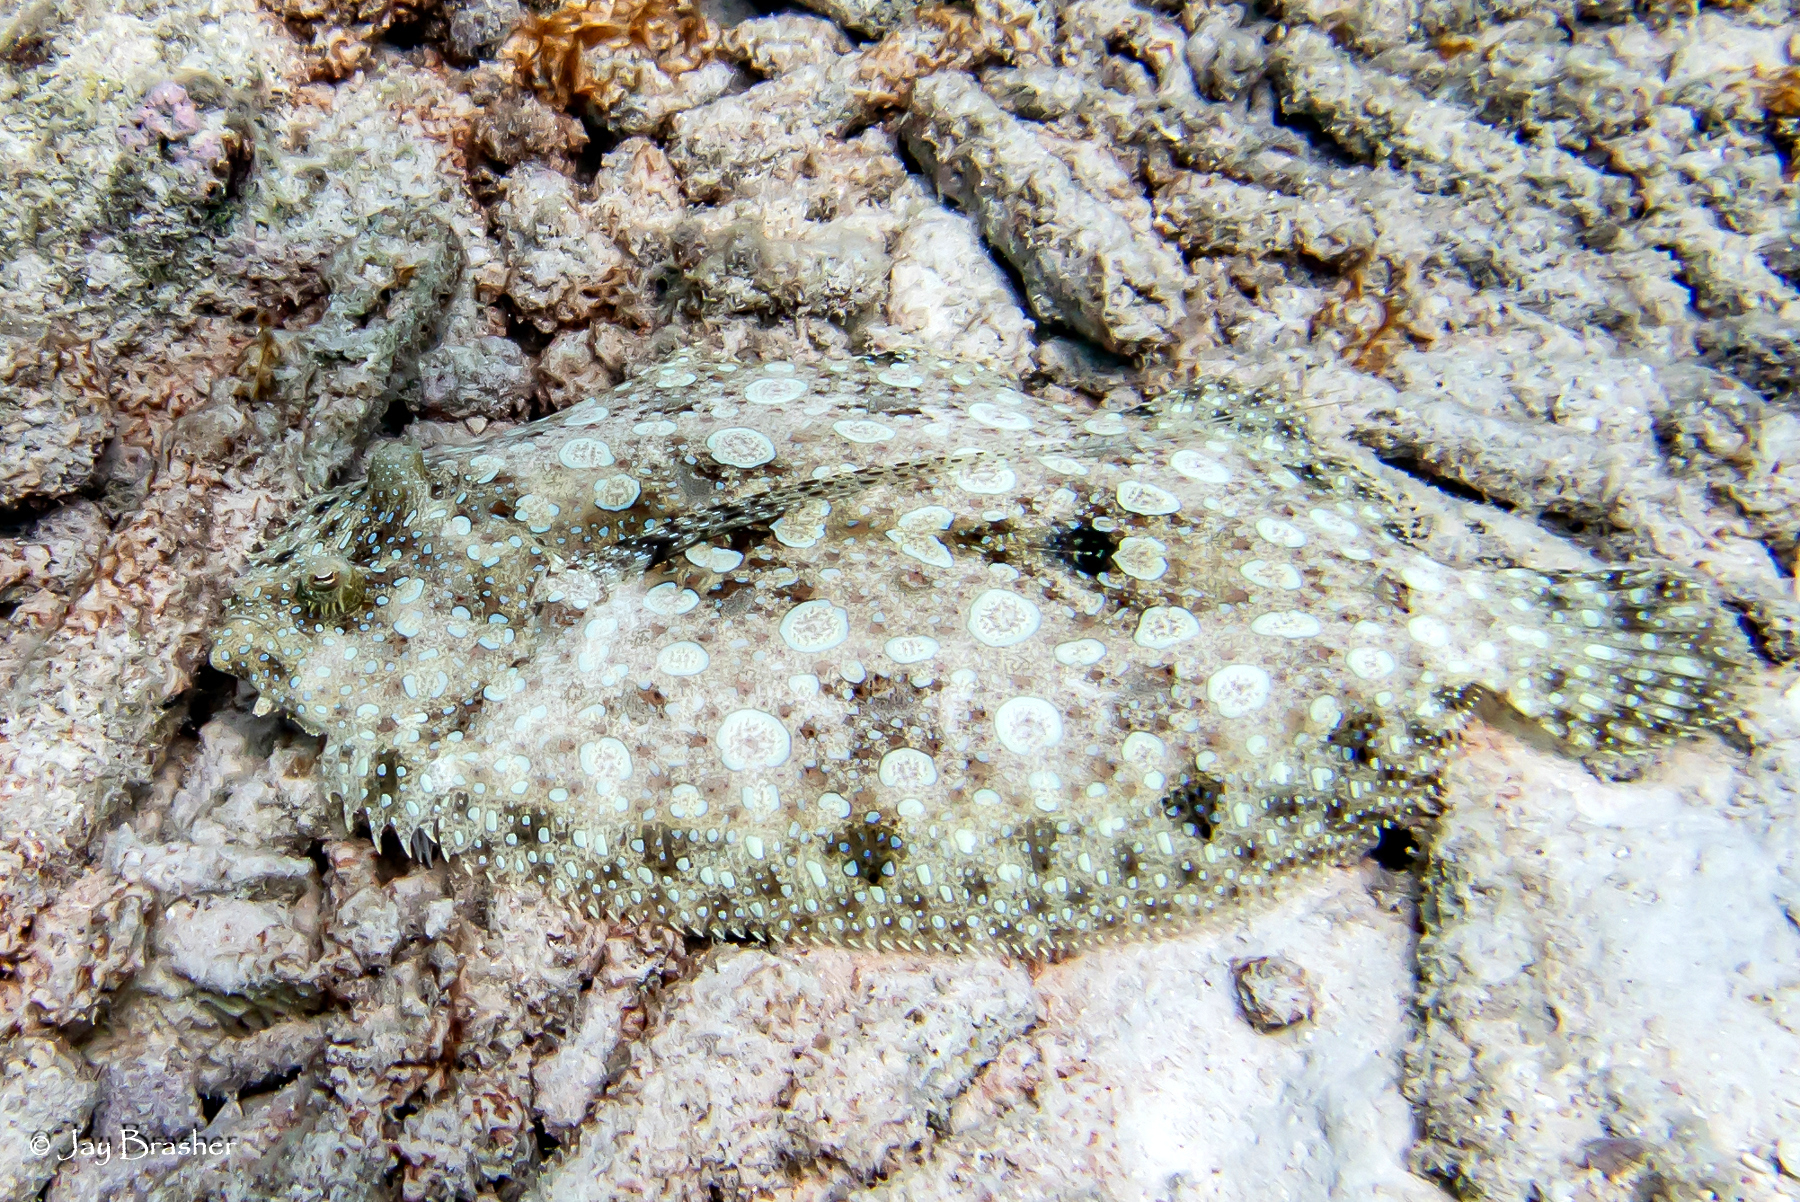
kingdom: Animalia
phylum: Chordata
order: Pleuronectiformes
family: Bothidae
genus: Bothus
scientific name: Bothus maculiferus
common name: Mottled flounder
